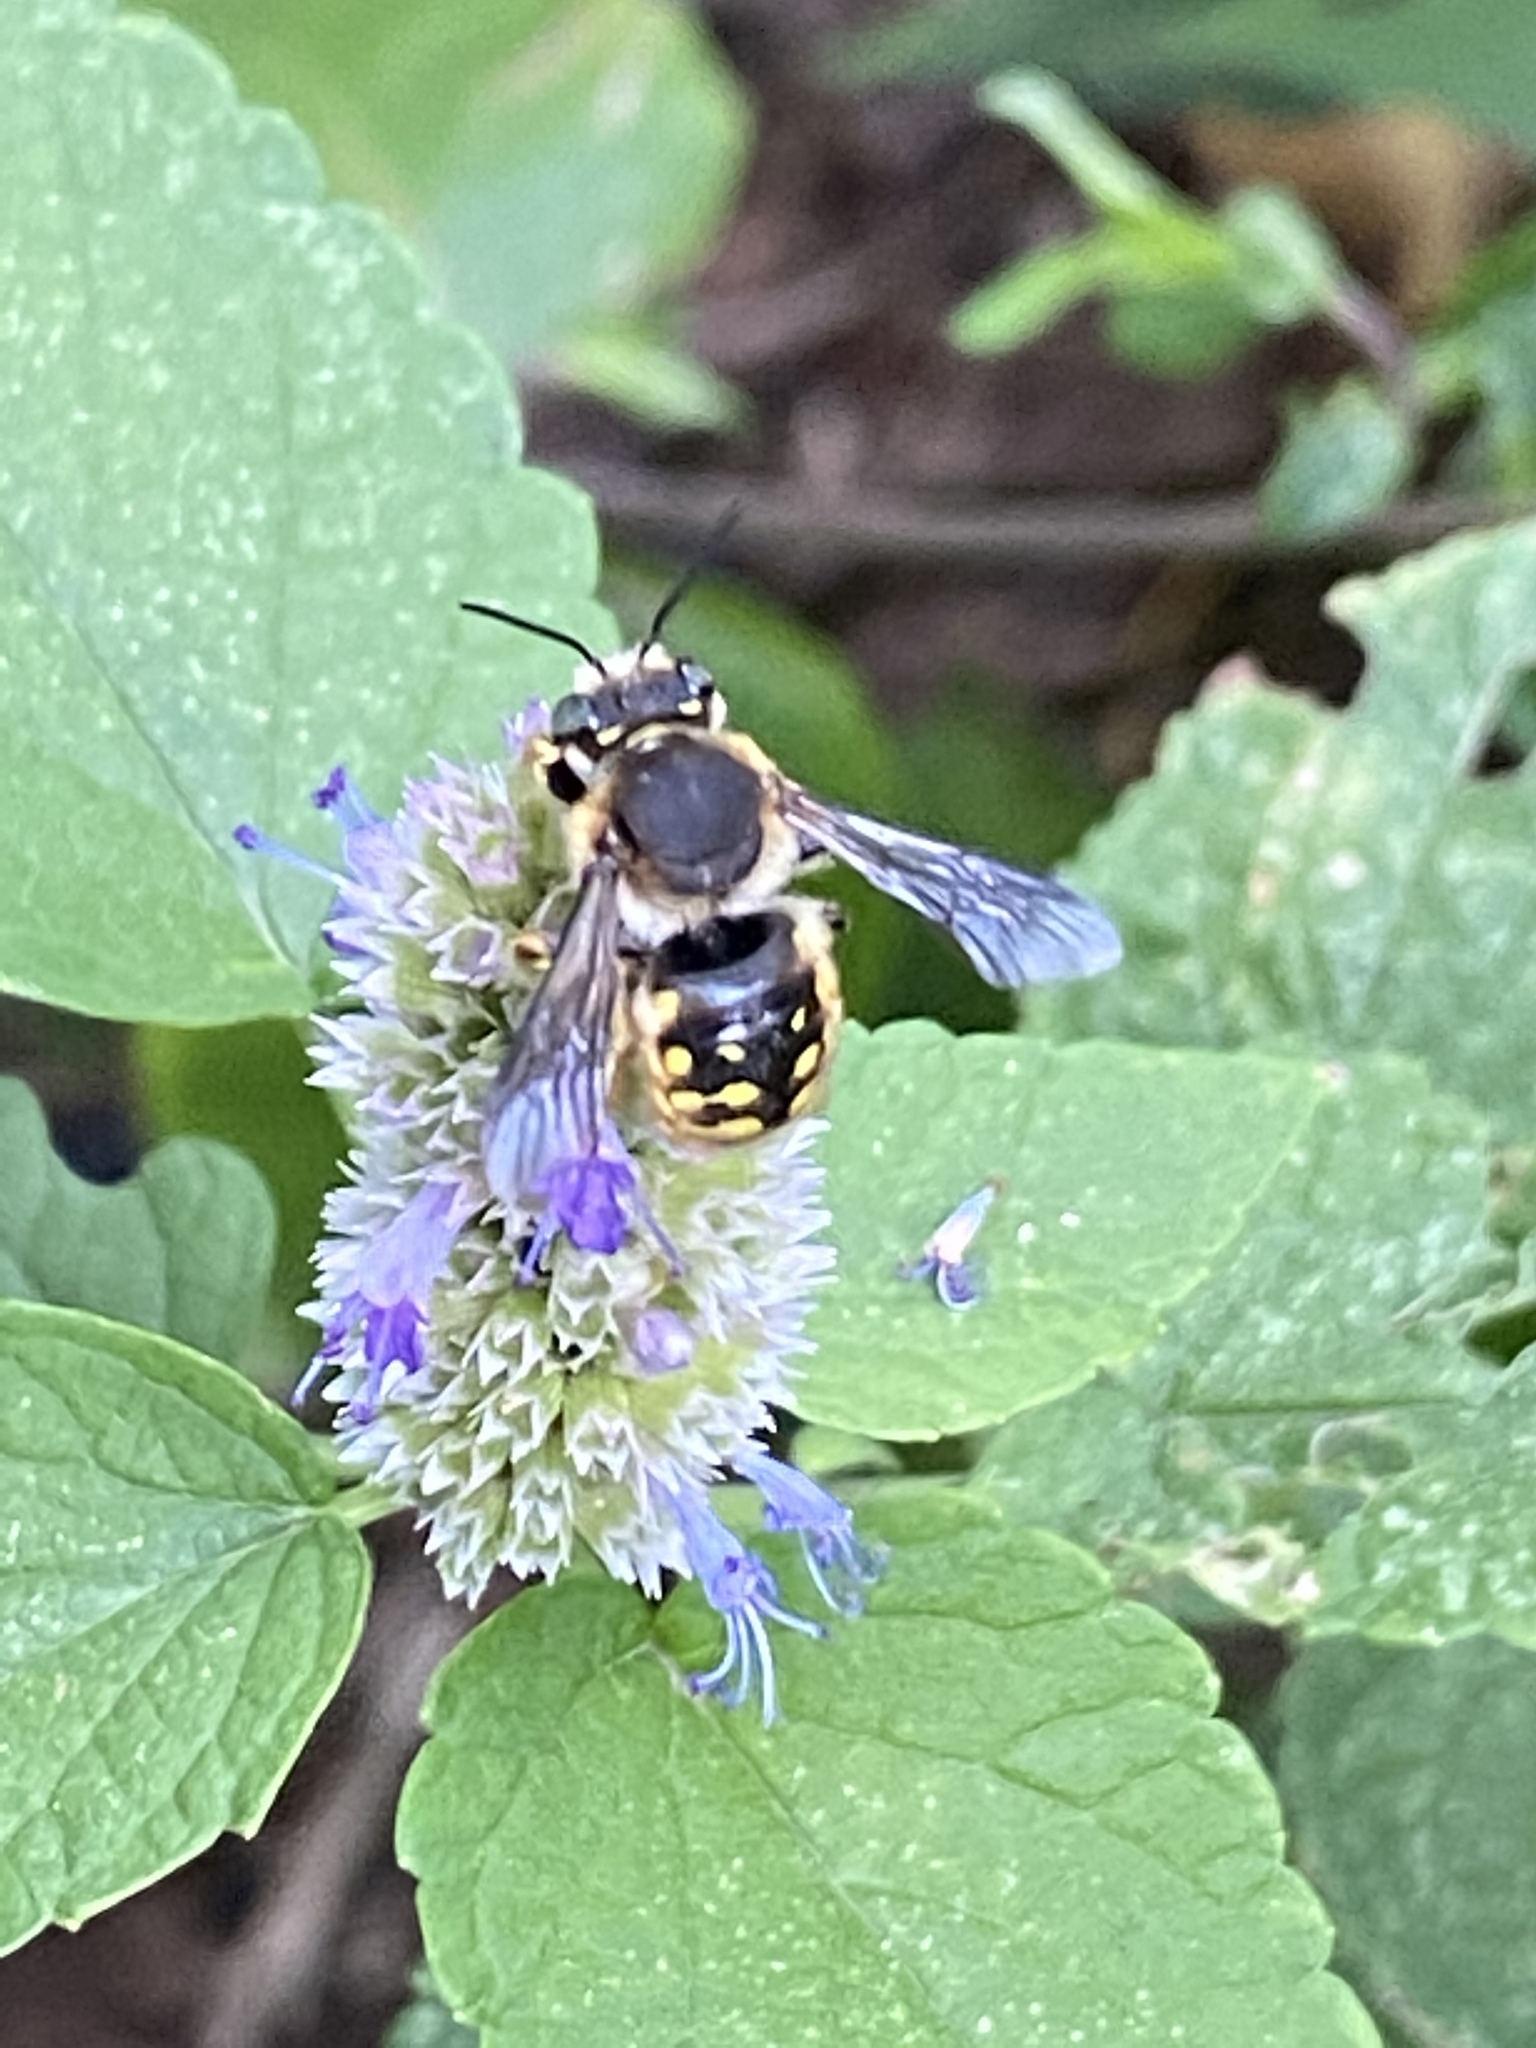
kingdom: Animalia
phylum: Arthropoda
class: Insecta
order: Hymenoptera
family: Megachilidae
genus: Anthidium
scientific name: Anthidium manicatum
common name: Wool carder bee
